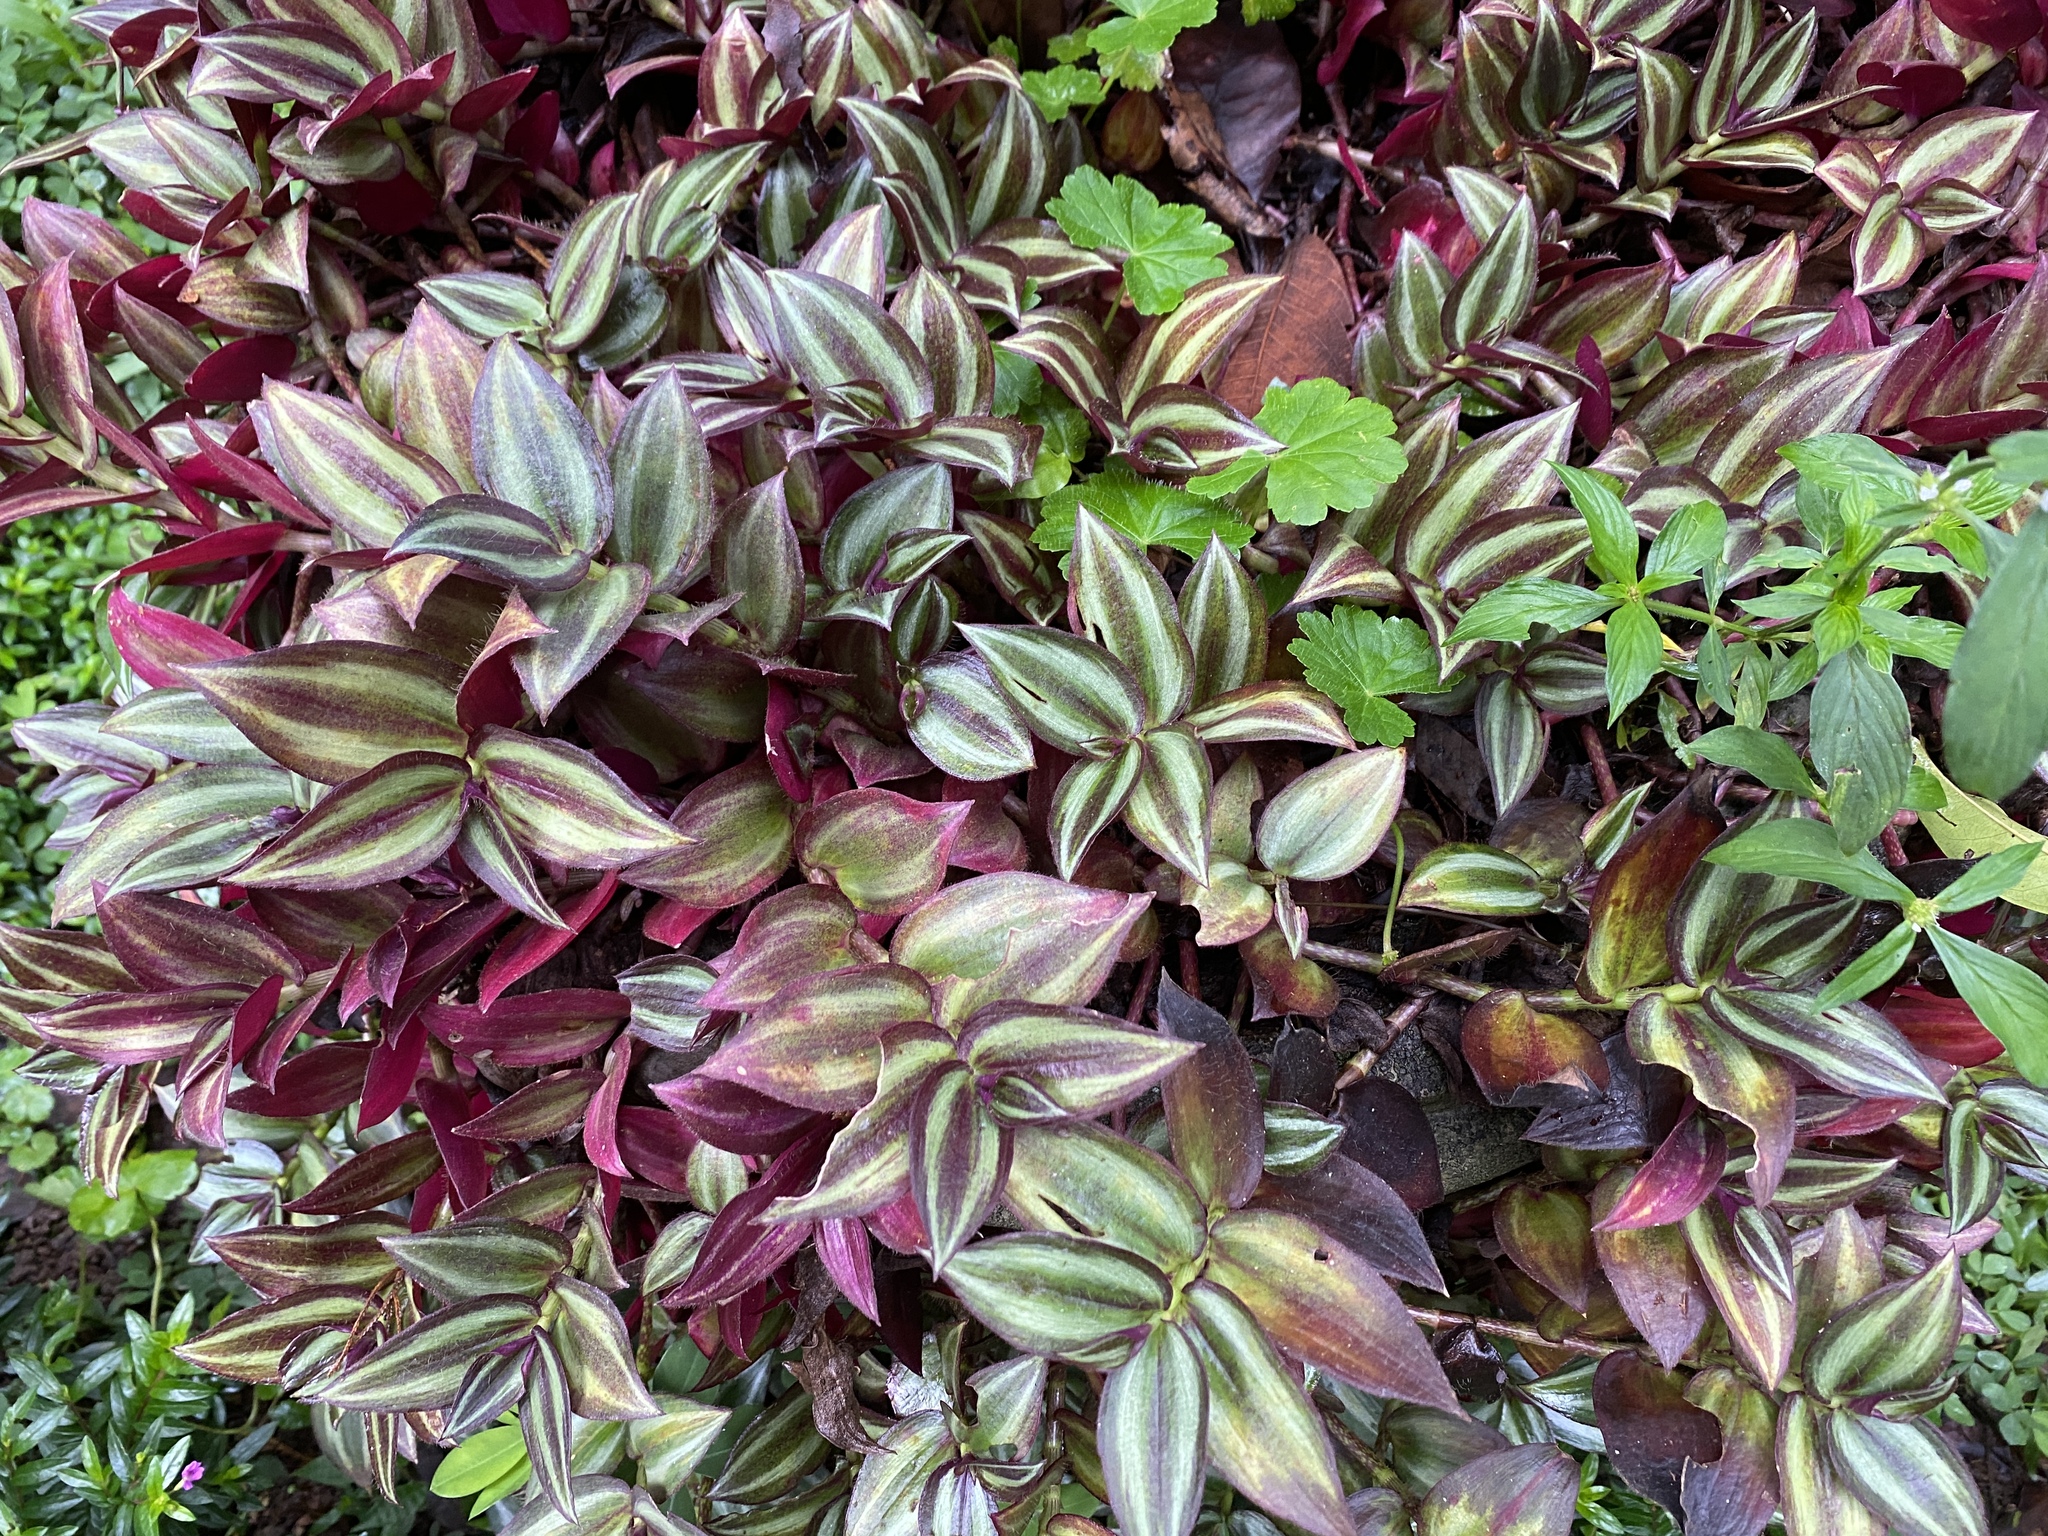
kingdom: Plantae
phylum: Tracheophyta
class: Liliopsida
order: Commelinales
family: Commelinaceae
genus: Tradescantia
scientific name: Tradescantia zebrina
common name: Inchplant
